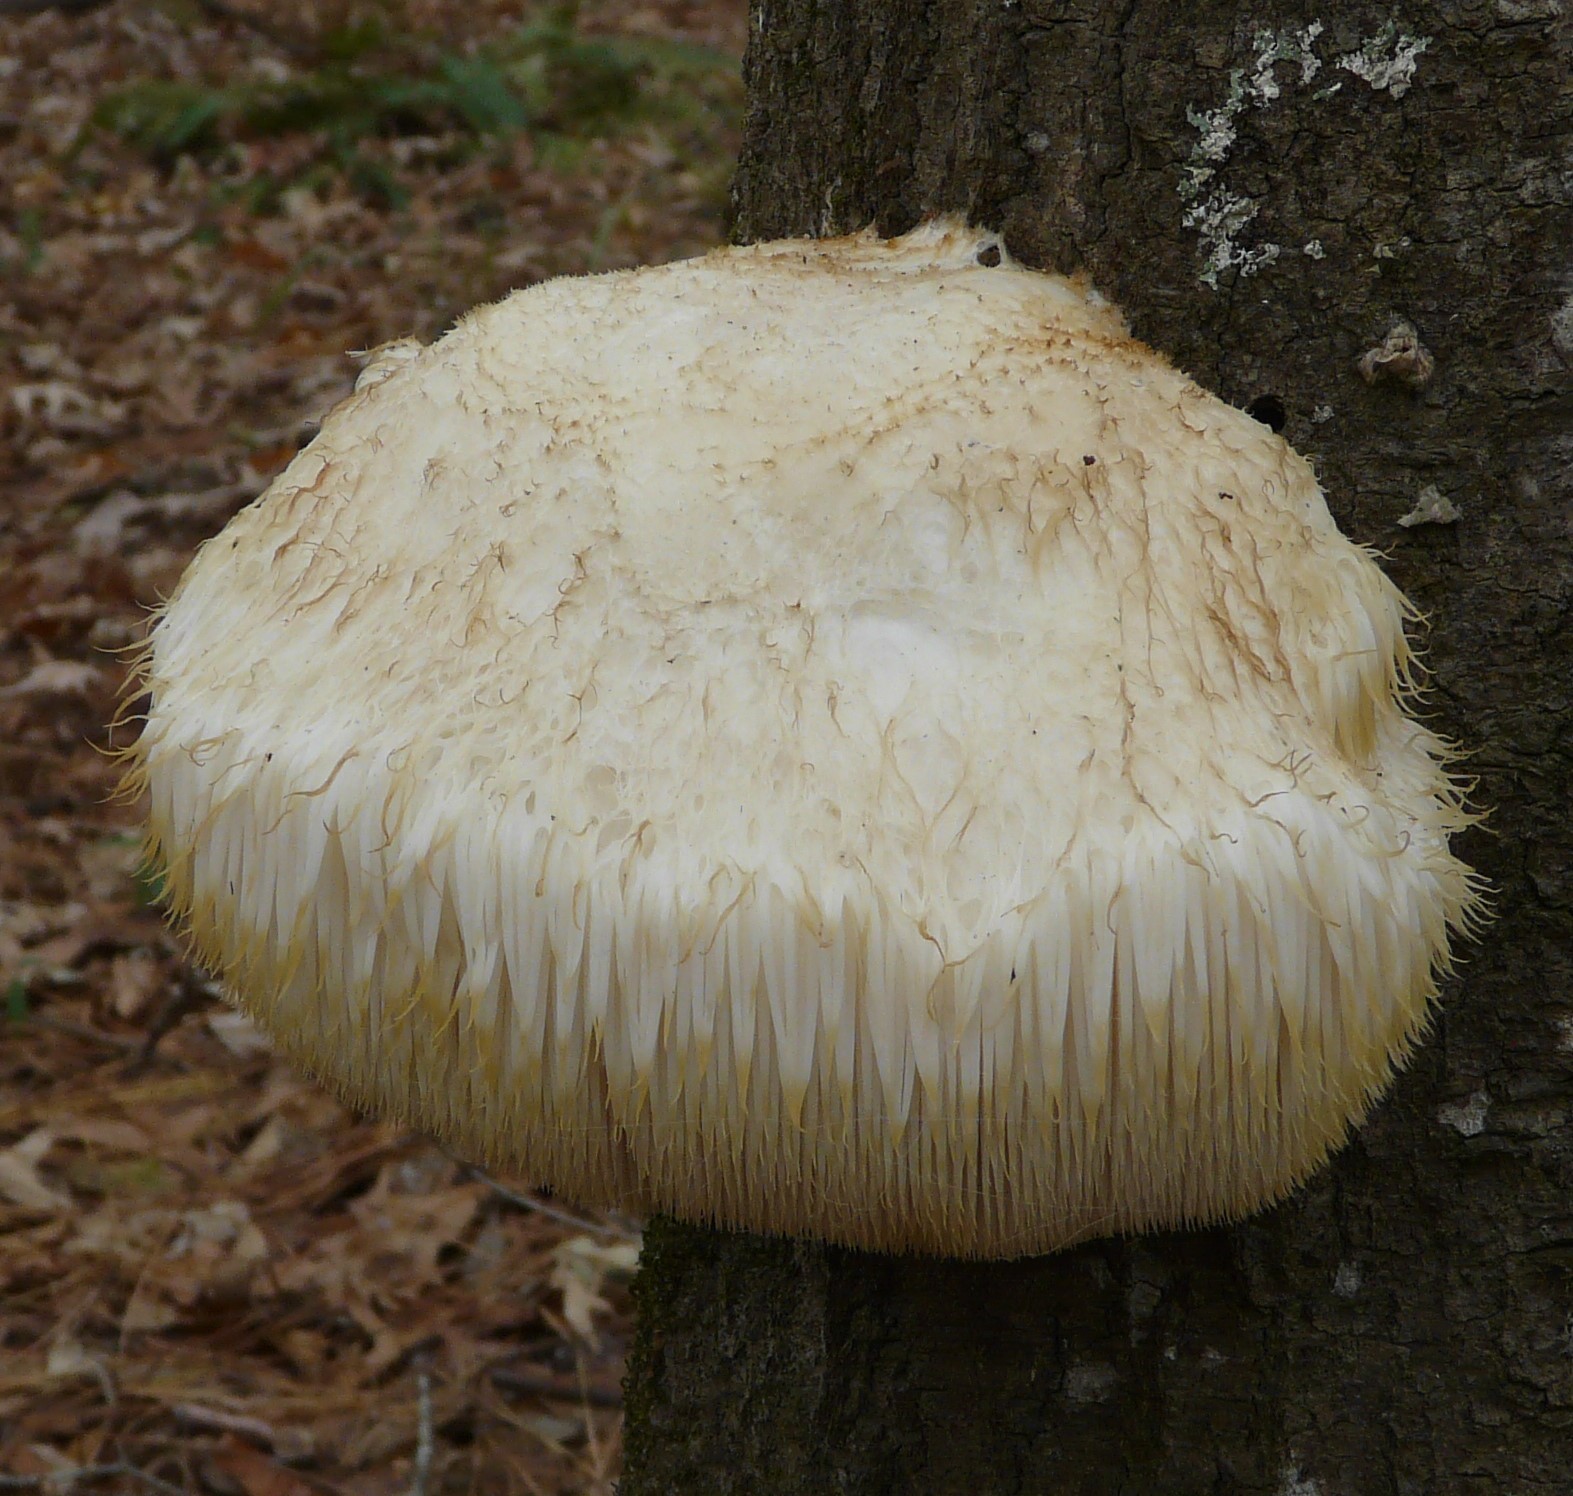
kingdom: Fungi
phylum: Basidiomycota
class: Agaricomycetes
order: Russulales
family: Hericiaceae
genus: Hericium
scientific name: Hericium erinaceus
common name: Bearded tooth
